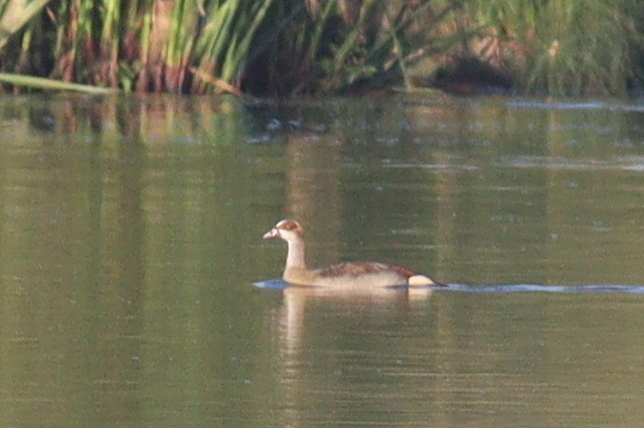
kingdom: Animalia
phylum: Chordata
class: Aves
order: Anseriformes
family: Anatidae
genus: Alopochen
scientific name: Alopochen aegyptiaca
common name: Egyptian goose
